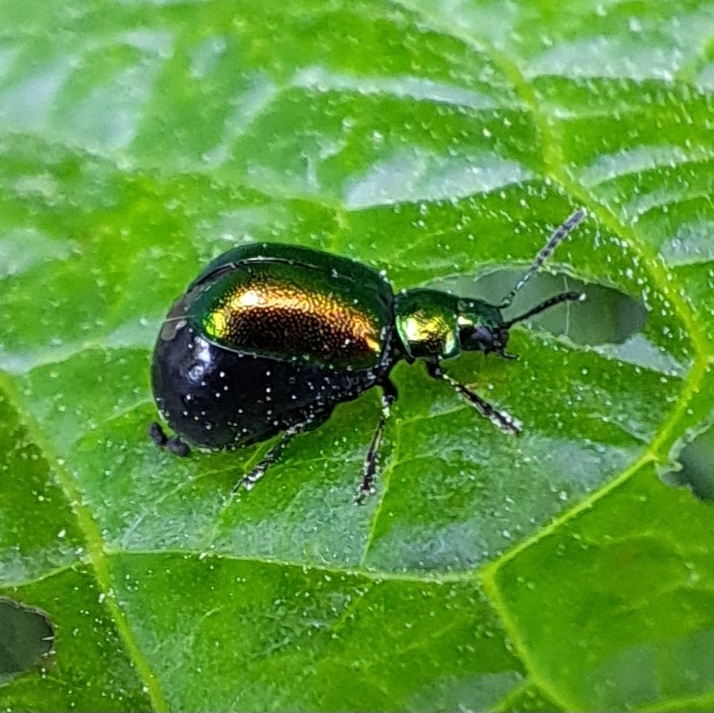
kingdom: Animalia
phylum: Arthropoda
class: Insecta
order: Coleoptera
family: Chrysomelidae
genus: Gastrophysa
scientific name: Gastrophysa viridula
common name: Green dock beetle
